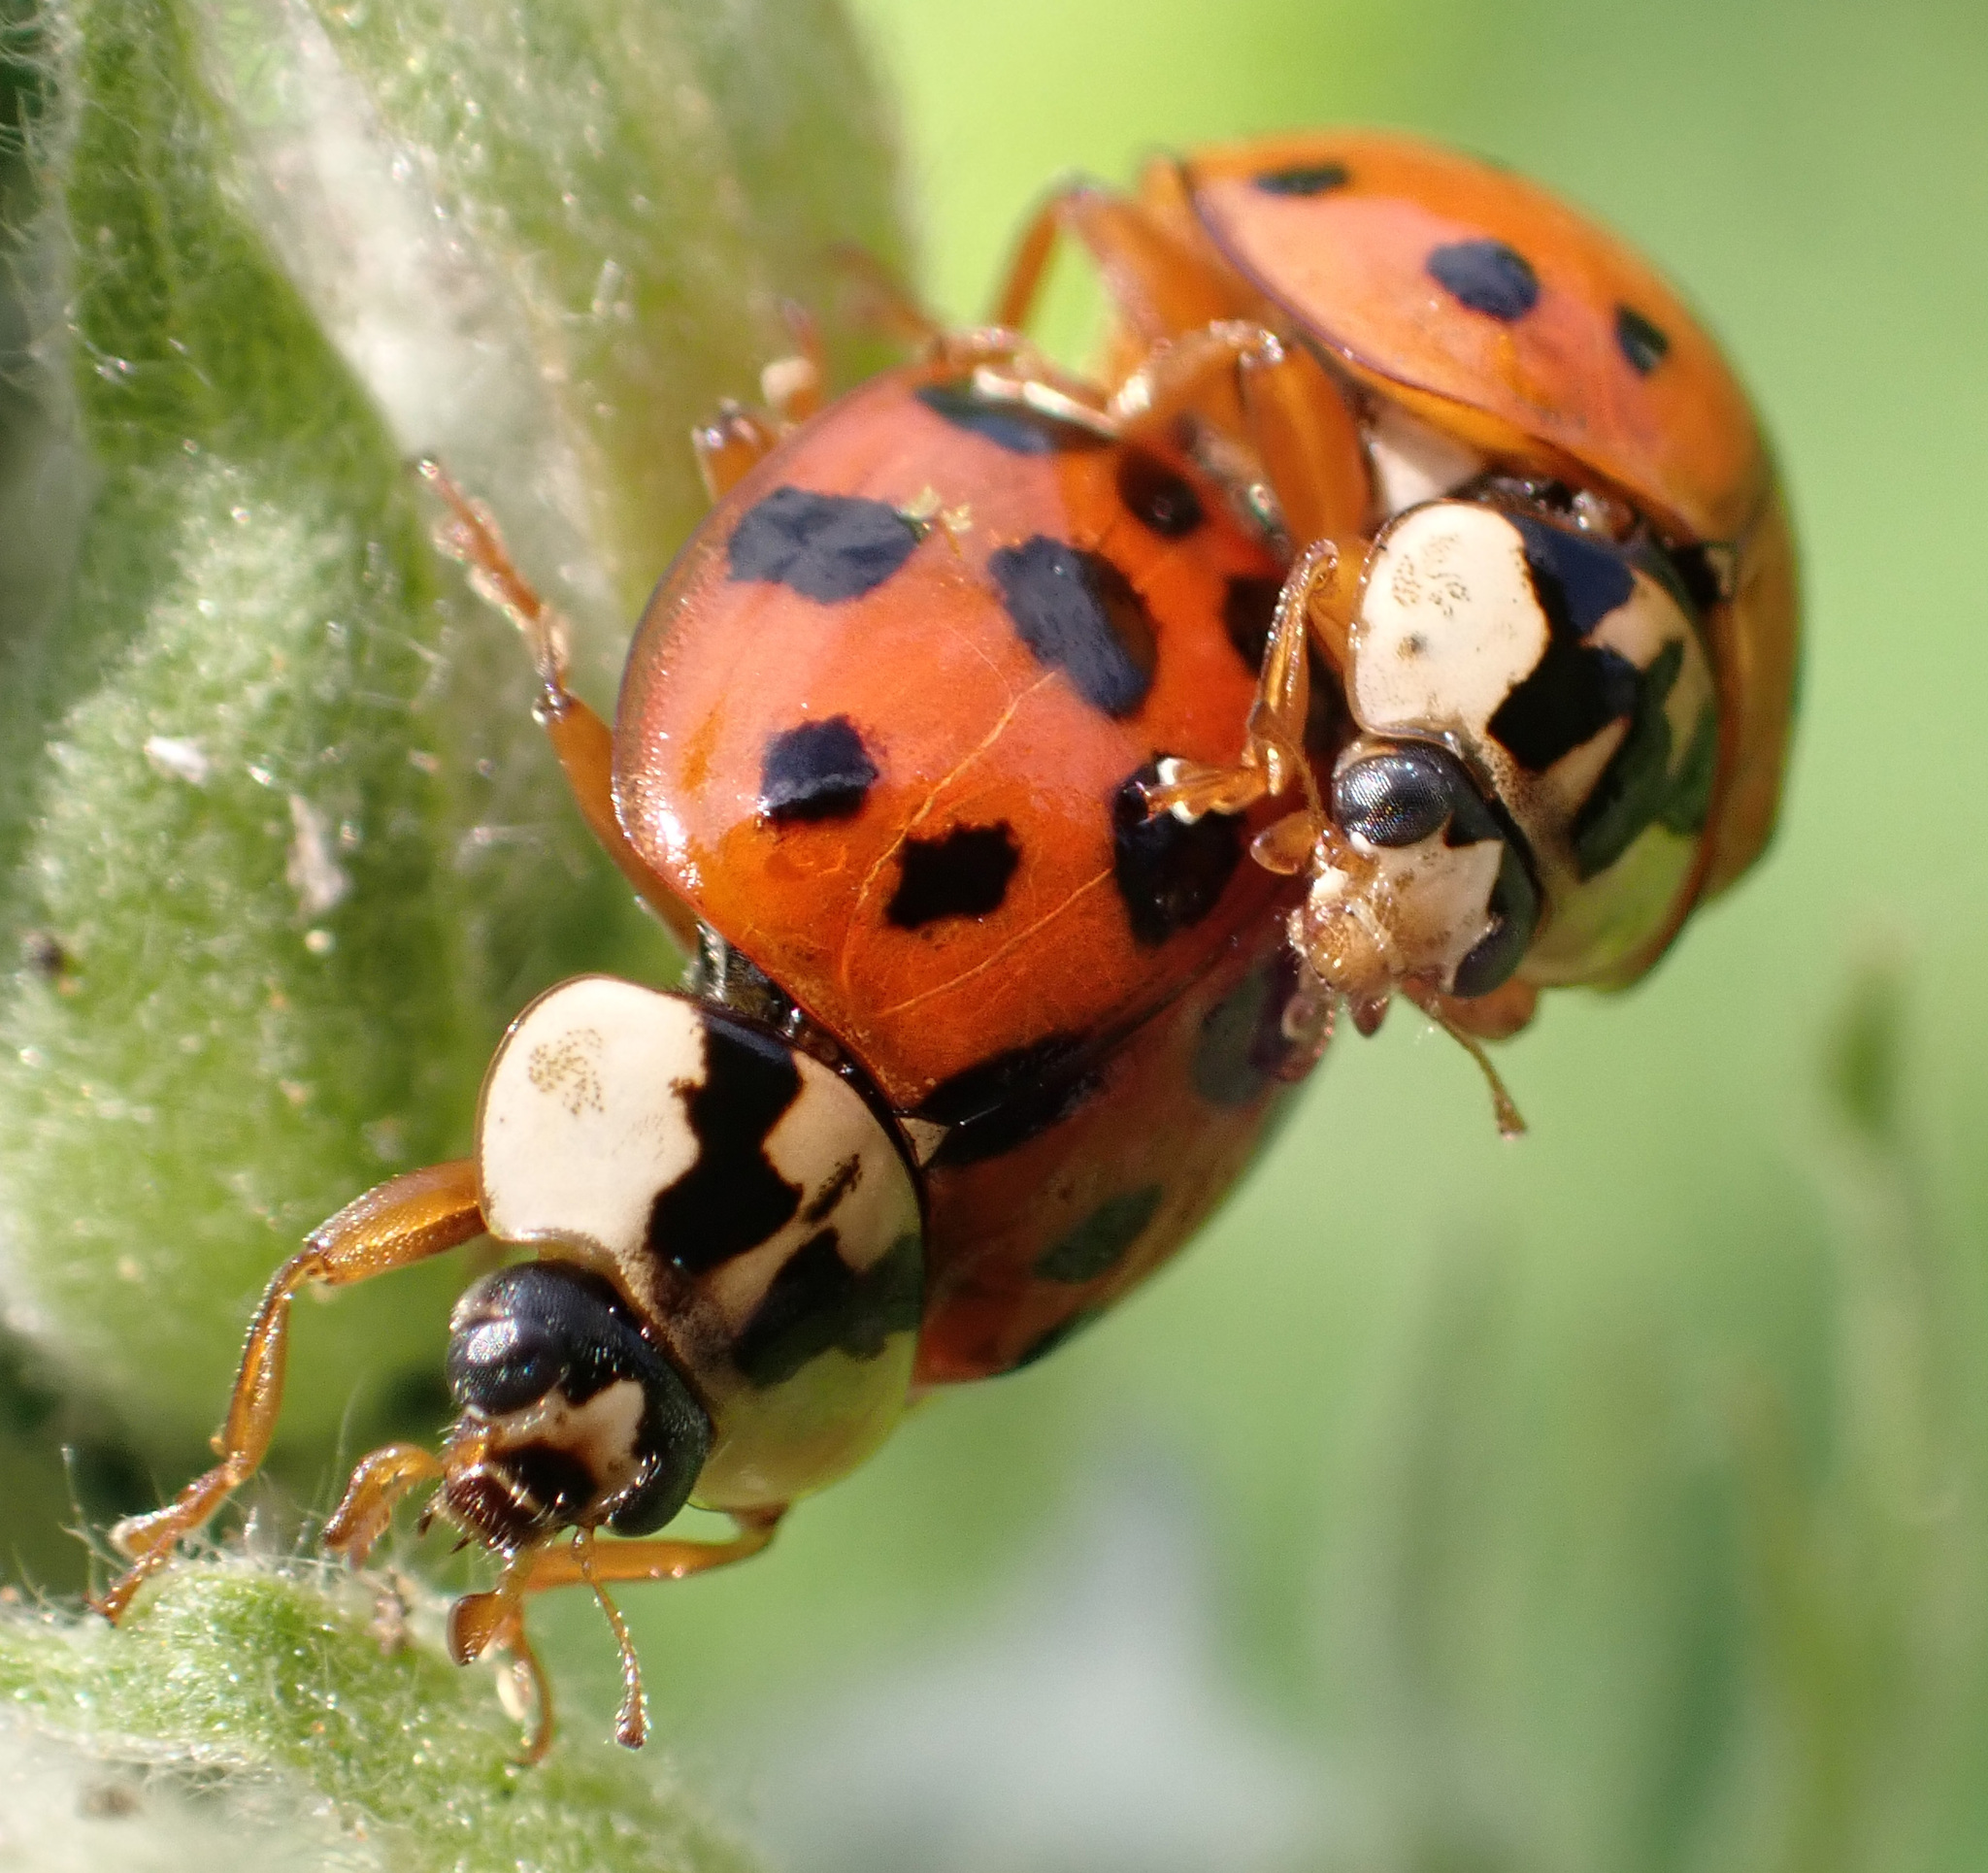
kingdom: Animalia
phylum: Arthropoda
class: Insecta
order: Coleoptera
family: Coccinellidae
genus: Harmonia
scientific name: Harmonia axyridis
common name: Harlequin ladybird
